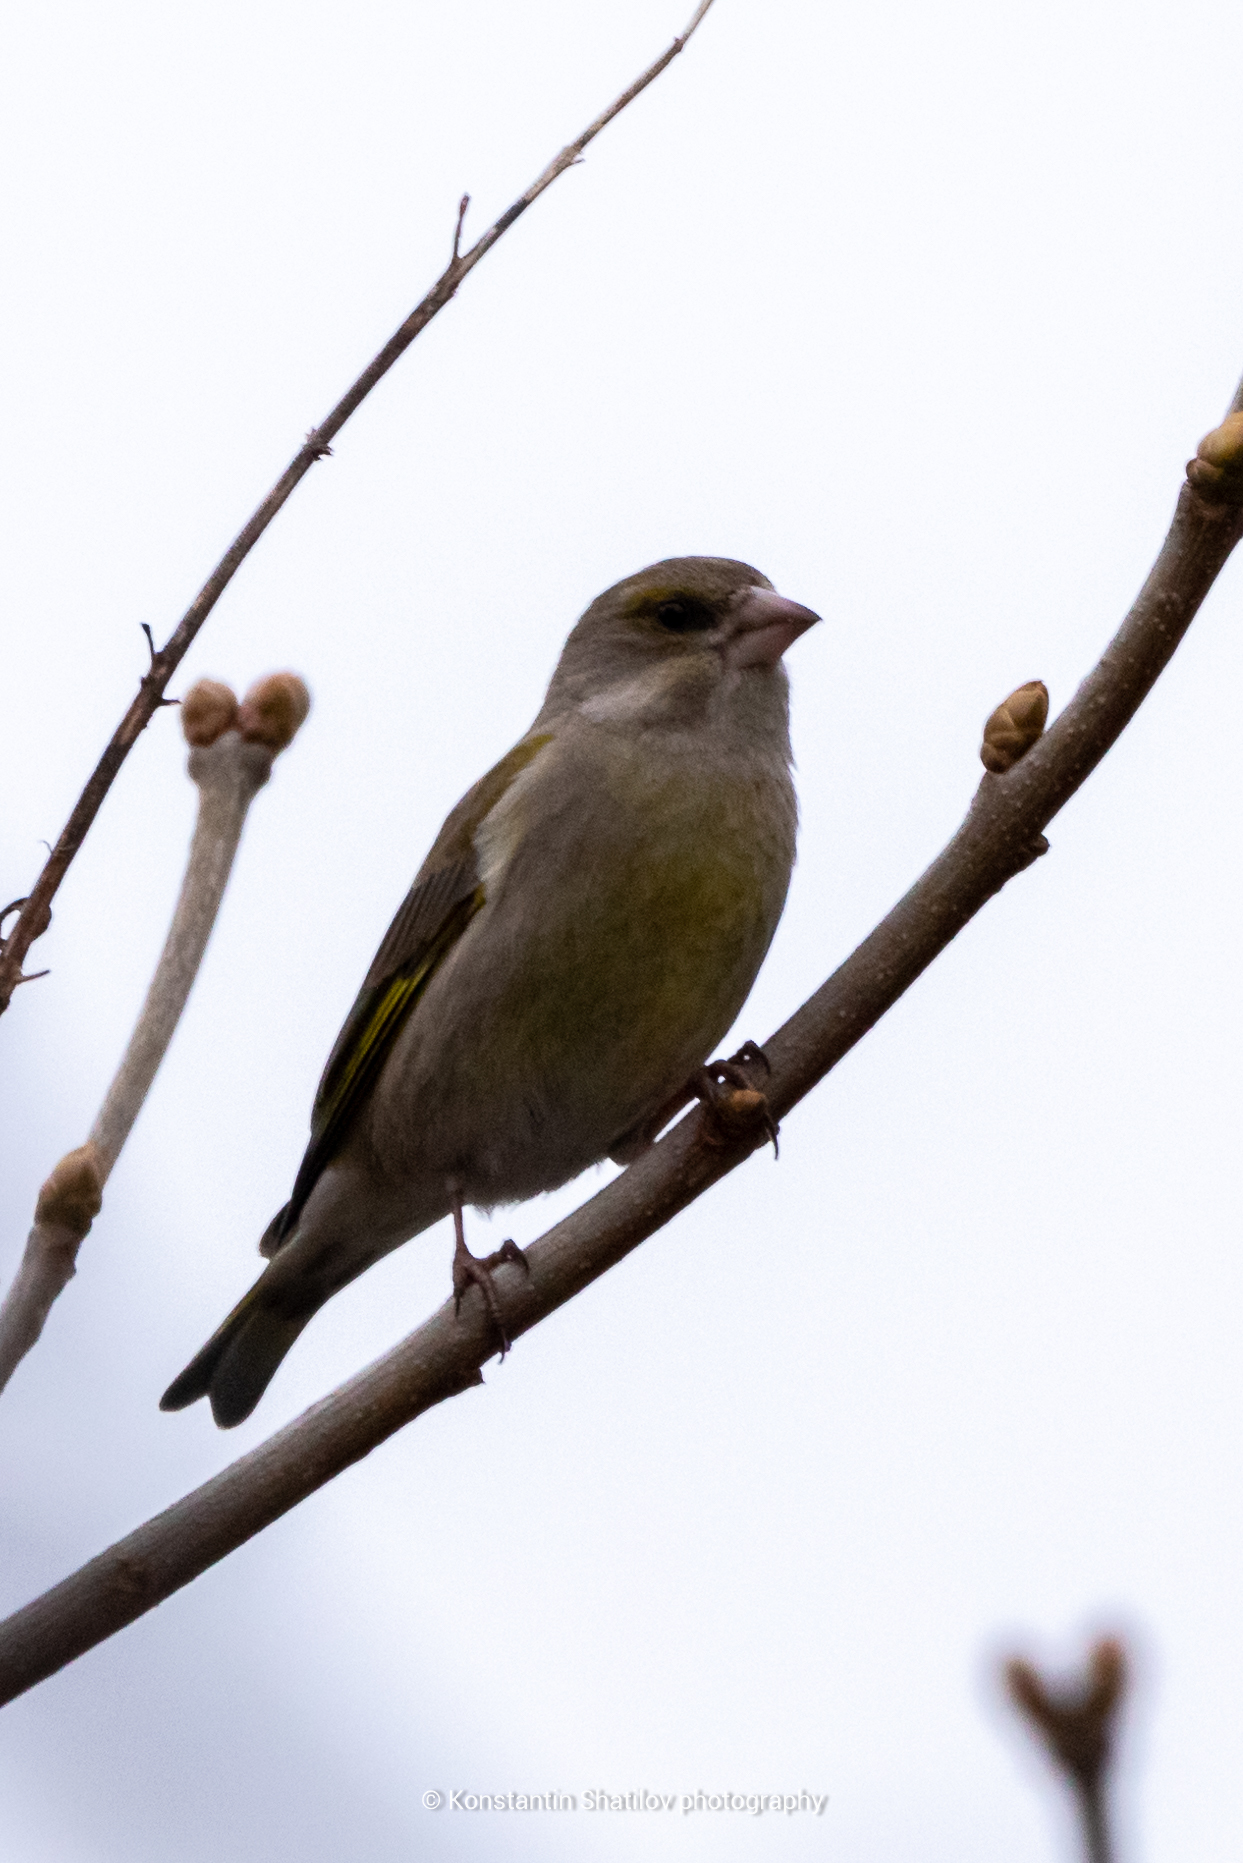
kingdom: Plantae
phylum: Tracheophyta
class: Liliopsida
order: Poales
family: Poaceae
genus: Chloris
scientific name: Chloris chloris
